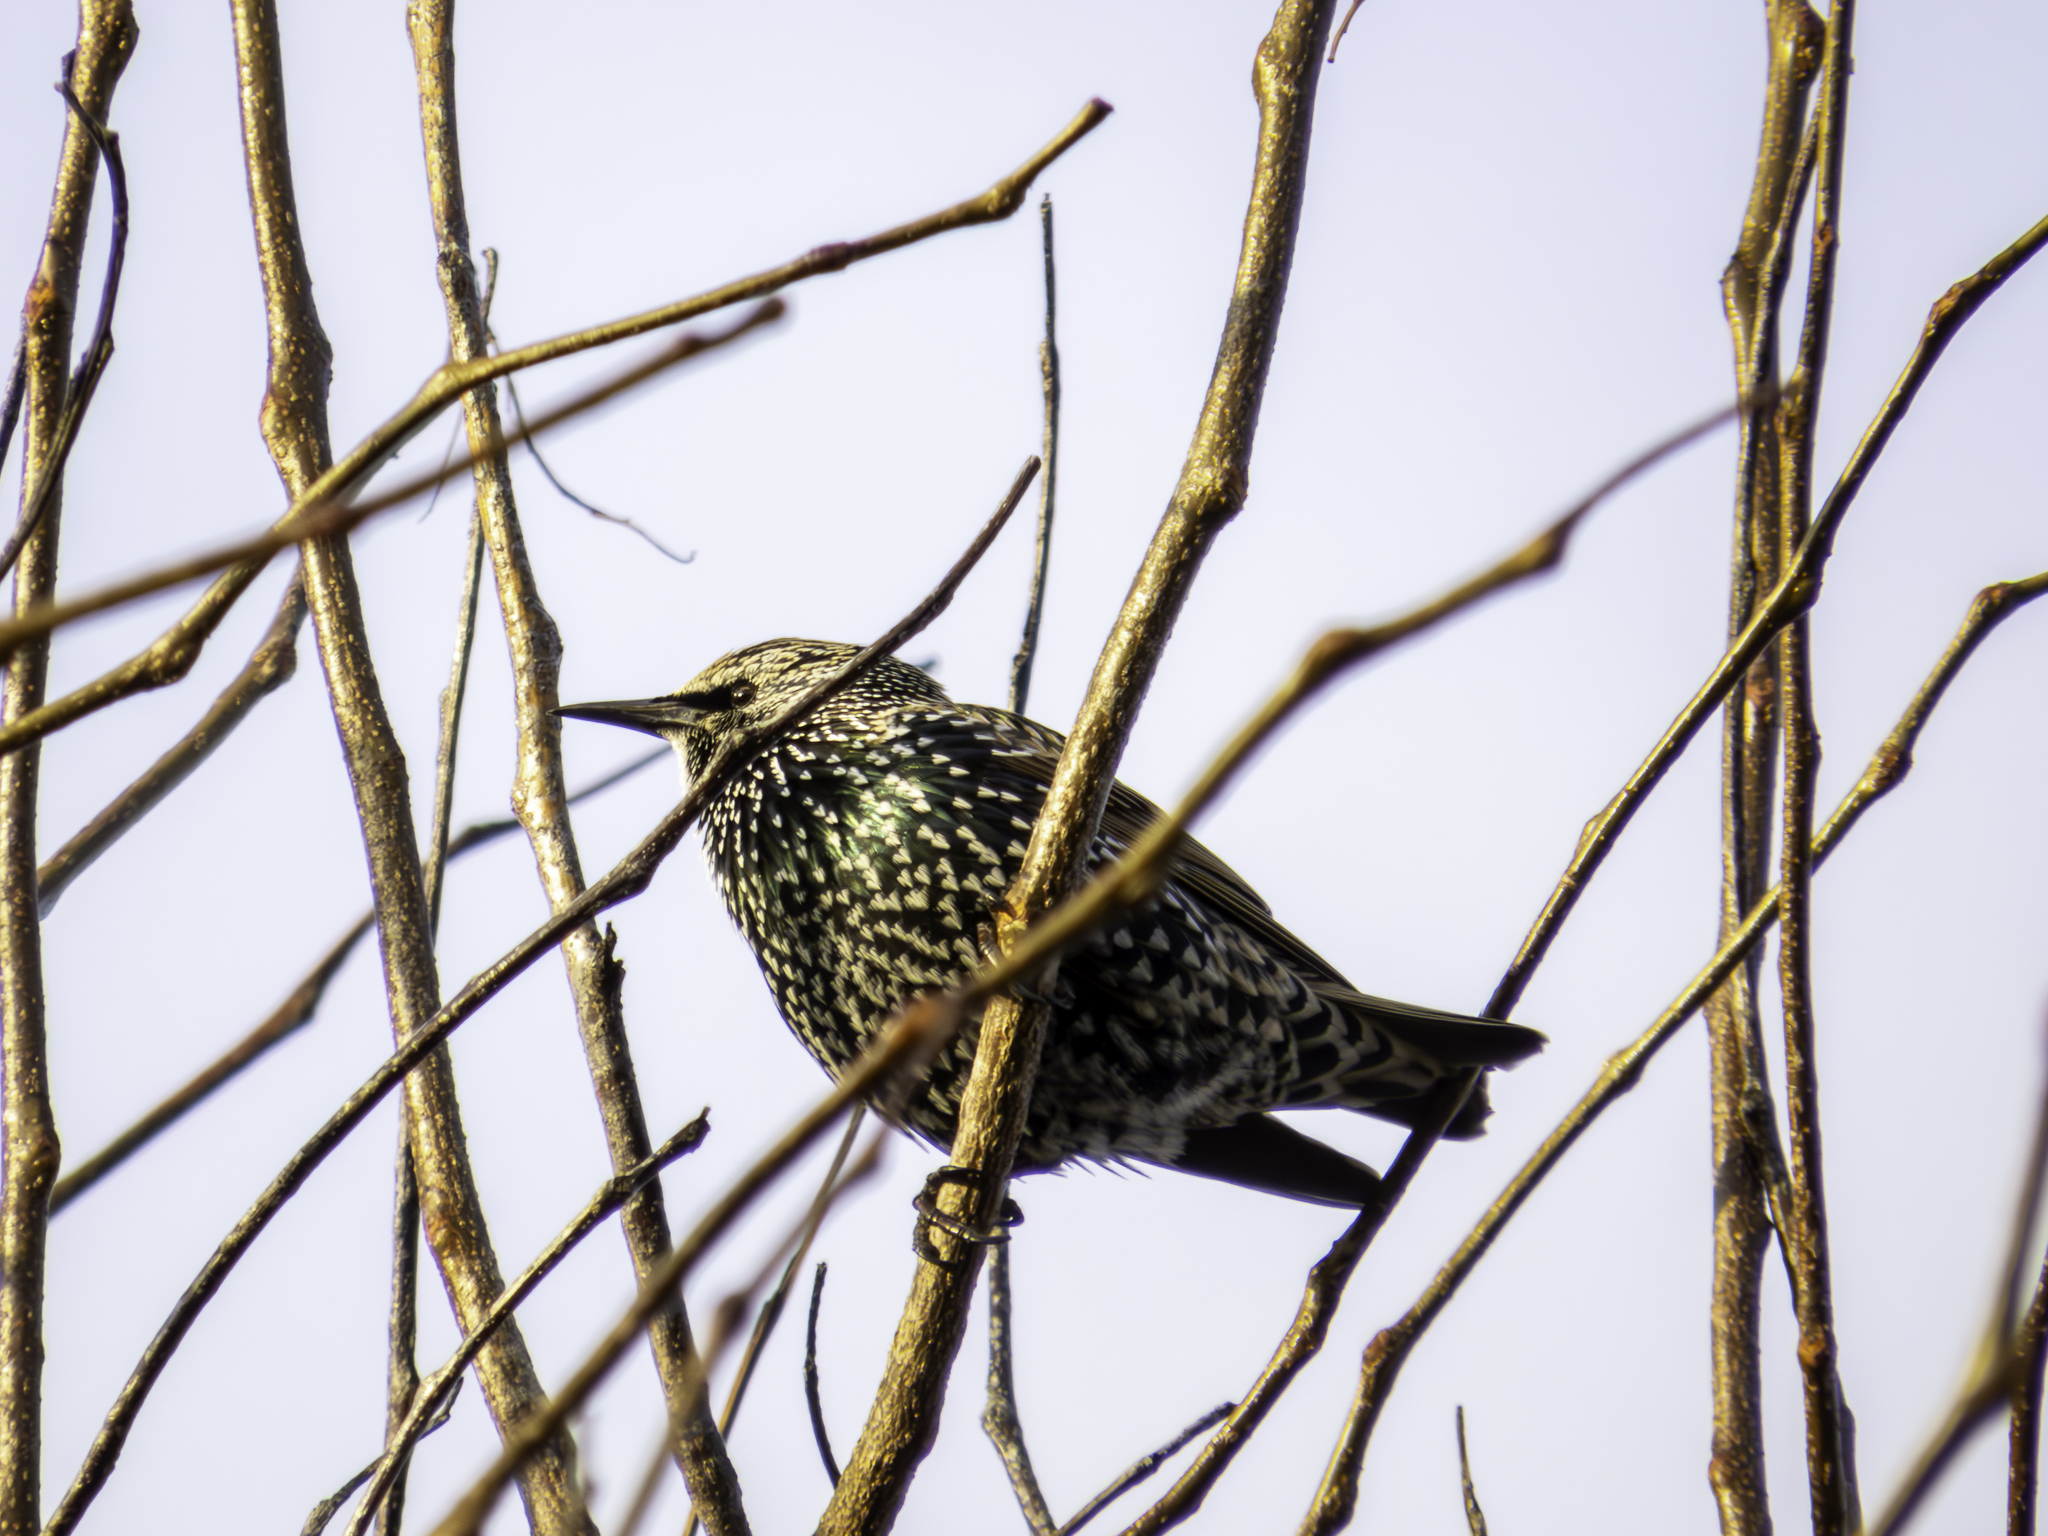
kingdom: Animalia
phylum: Chordata
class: Aves
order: Passeriformes
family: Sturnidae
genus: Sturnus
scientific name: Sturnus vulgaris
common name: Common starling
